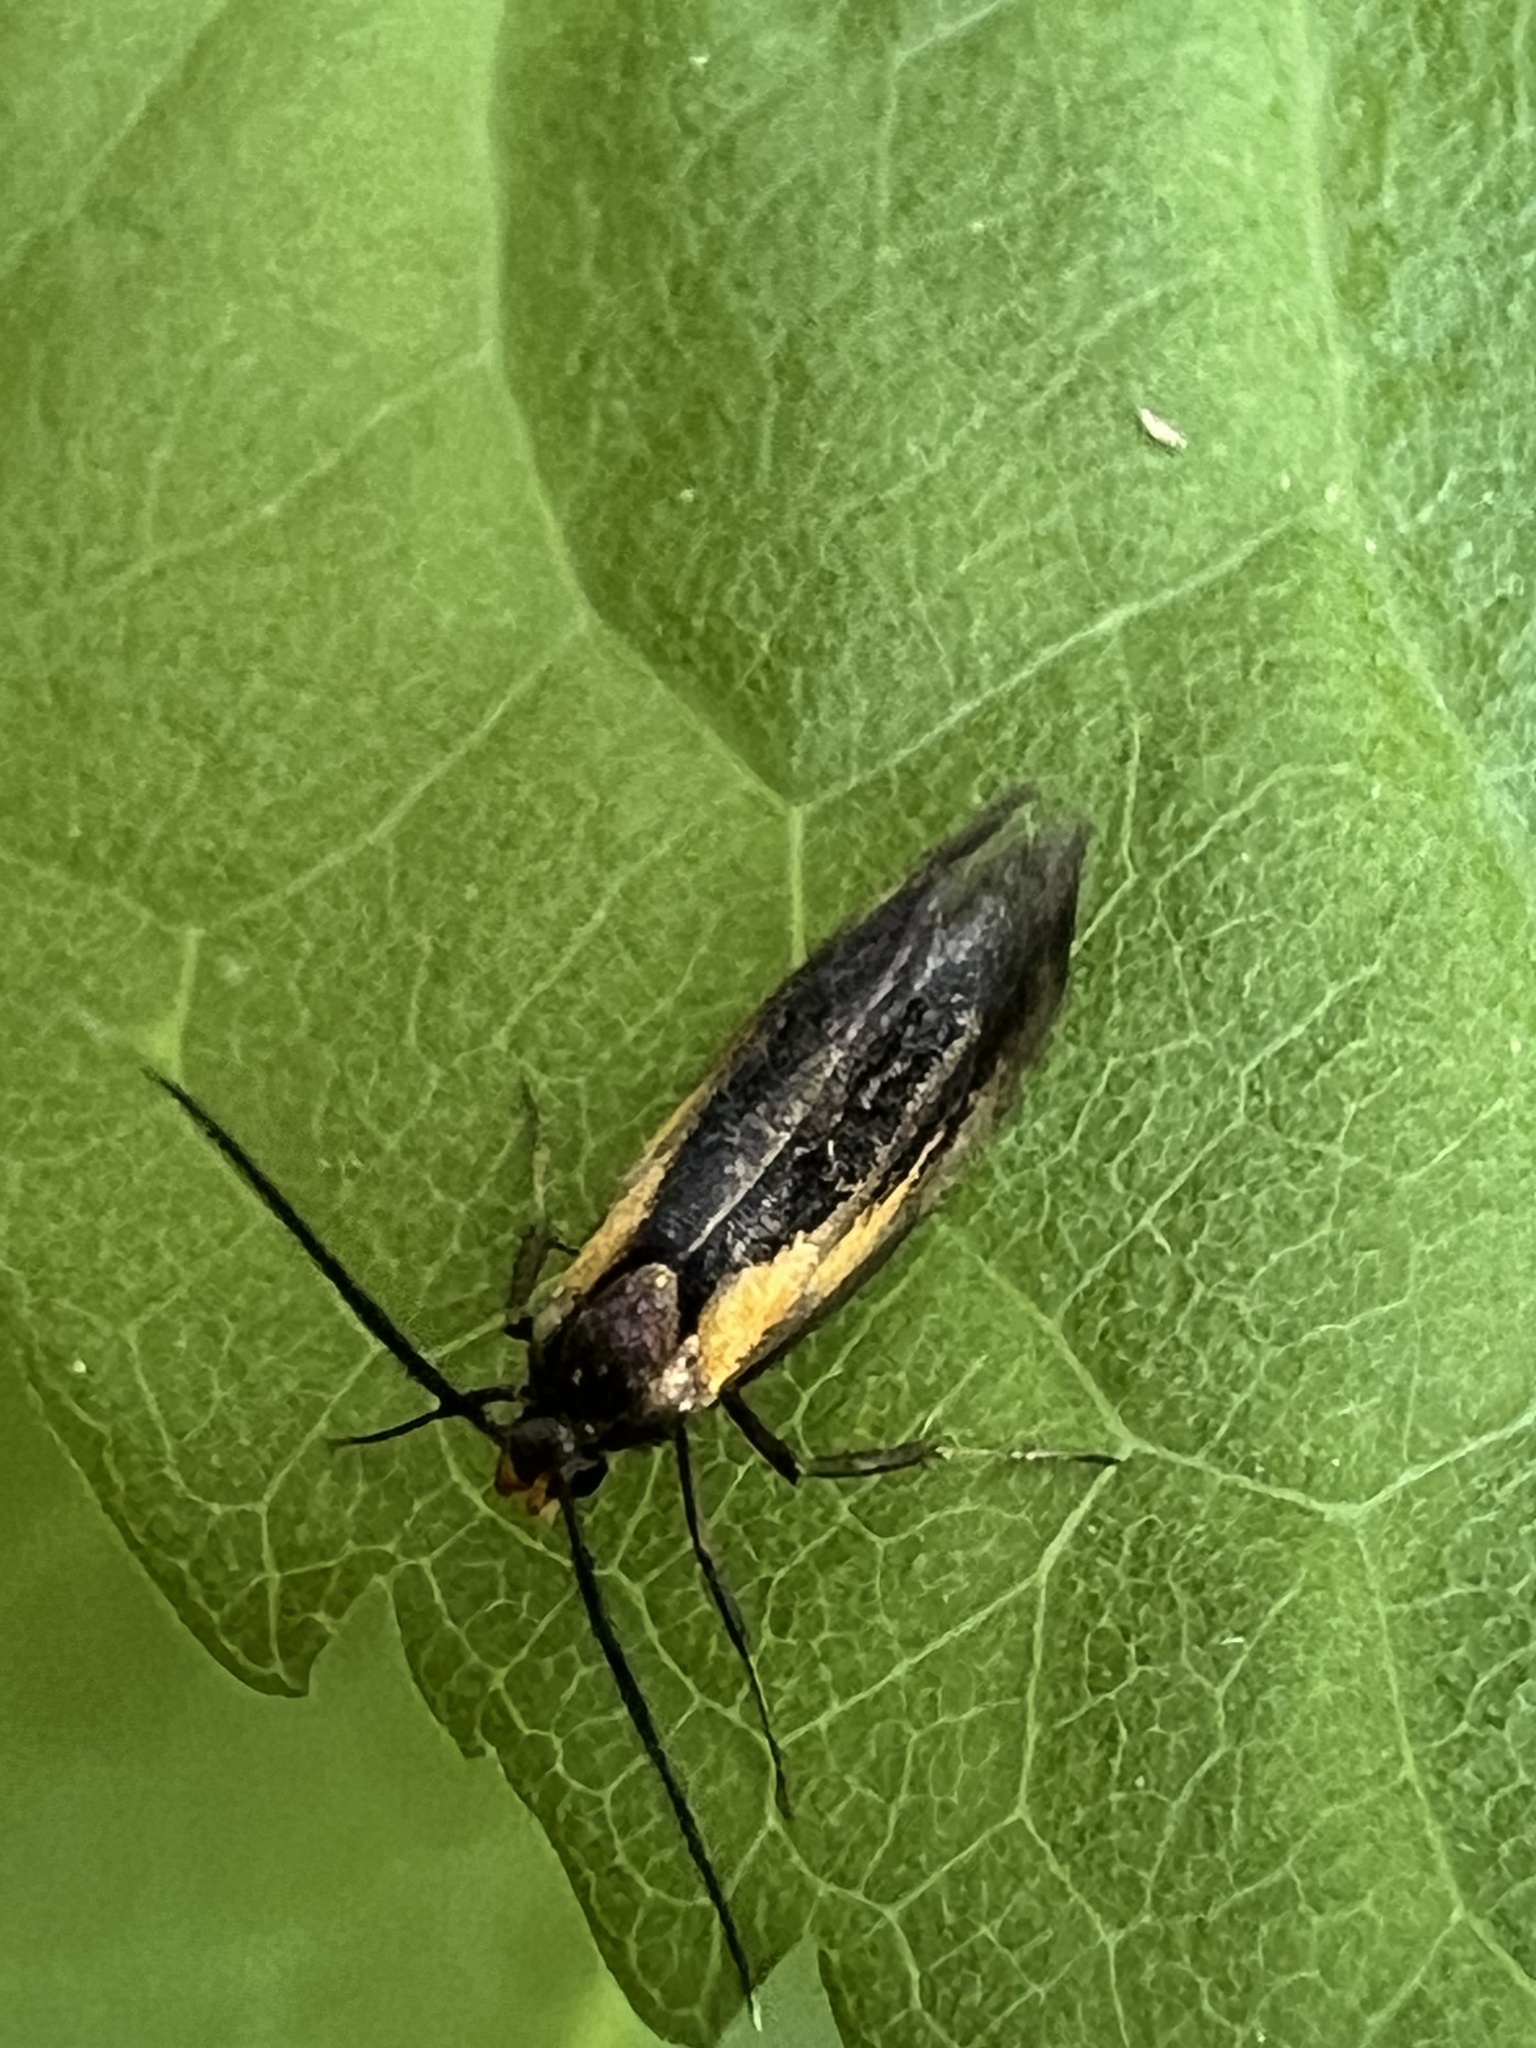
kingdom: Animalia
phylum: Arthropoda
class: Insecta
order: Lepidoptera
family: Oecophoridae
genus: Mathildana
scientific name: Mathildana newmanella
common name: Newman's mathildana moth
